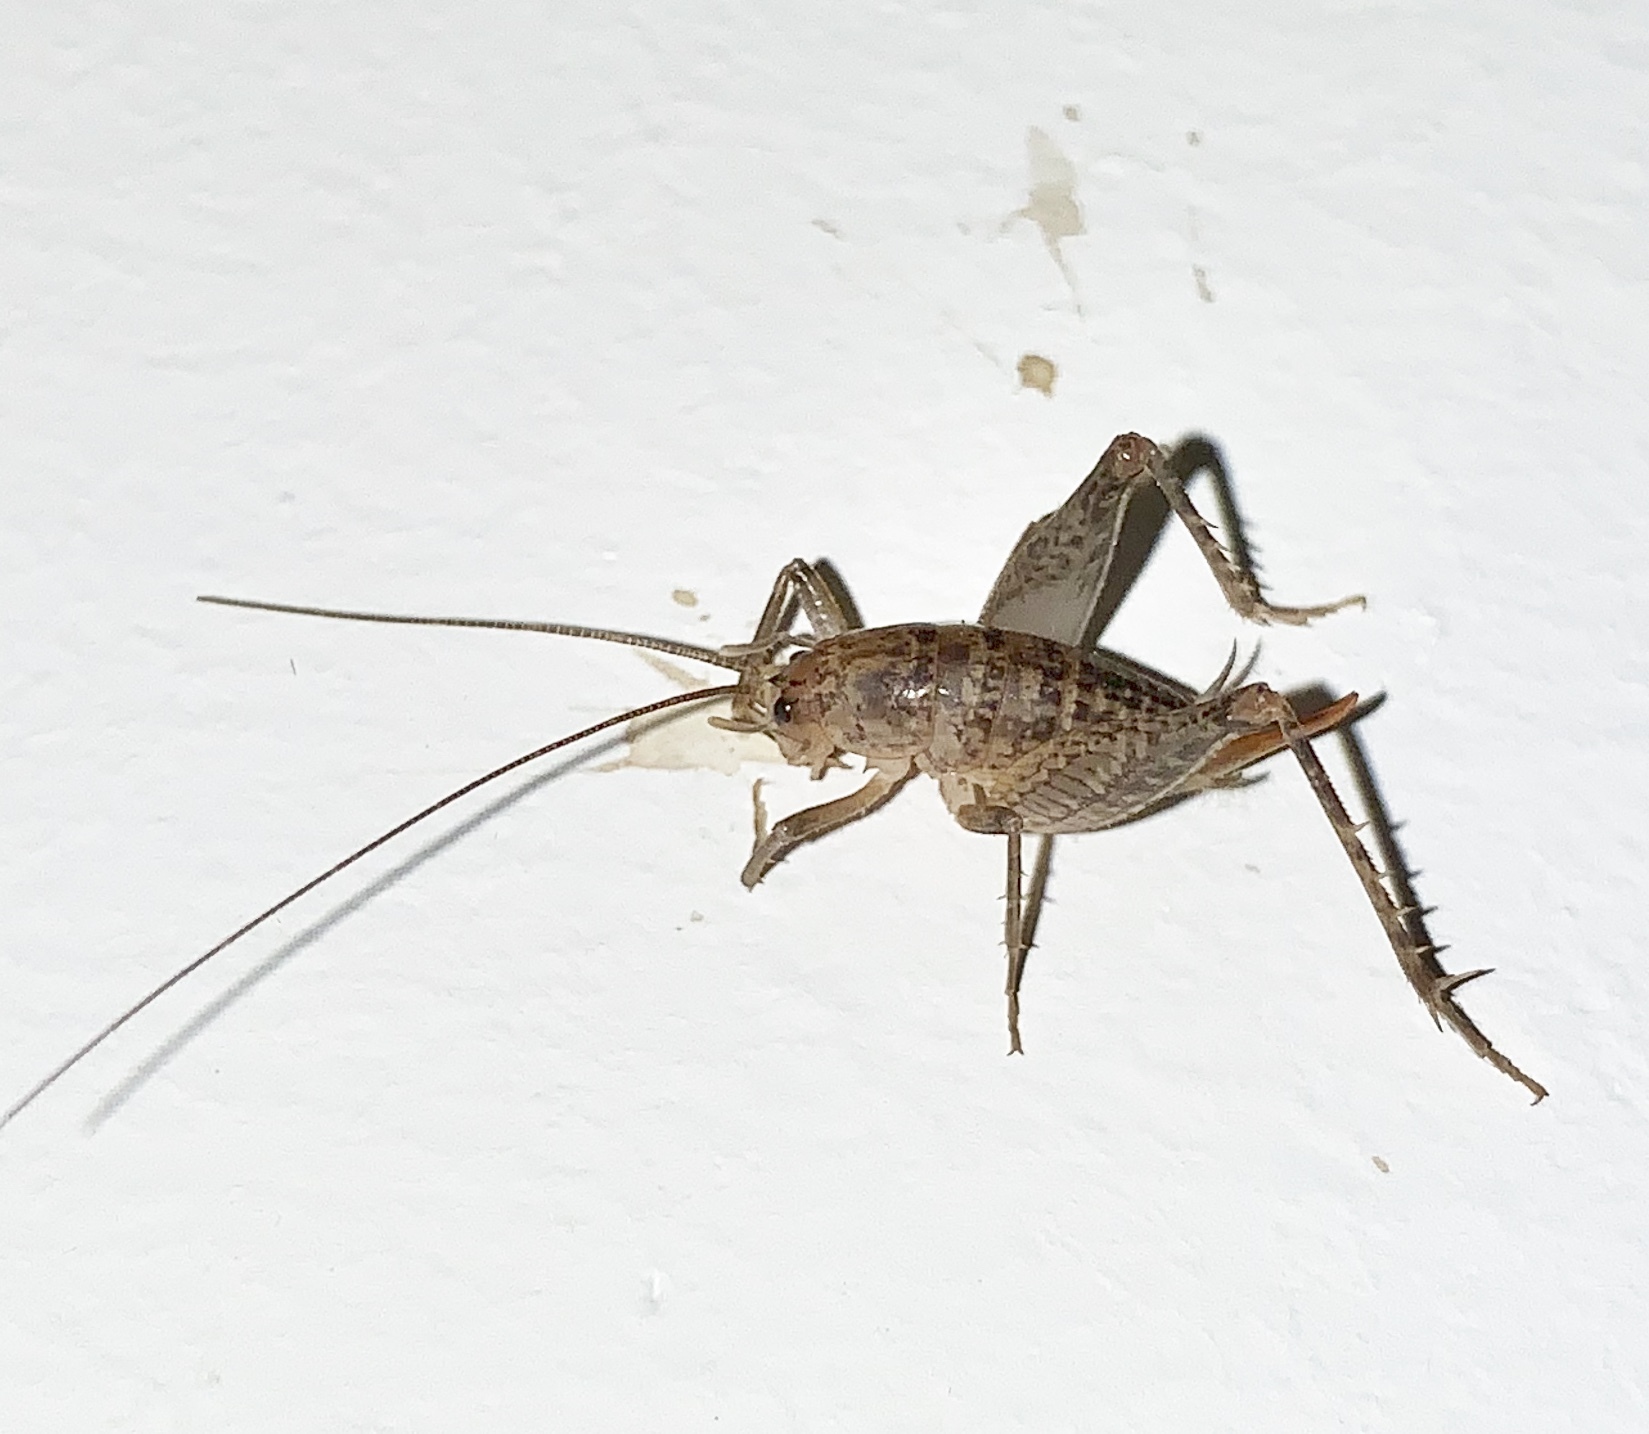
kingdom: Animalia
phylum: Arthropoda
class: Insecta
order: Orthoptera
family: Rhaphidophoridae
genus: Pristoceuthophilus
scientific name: Pristoceuthophilus arizonae
